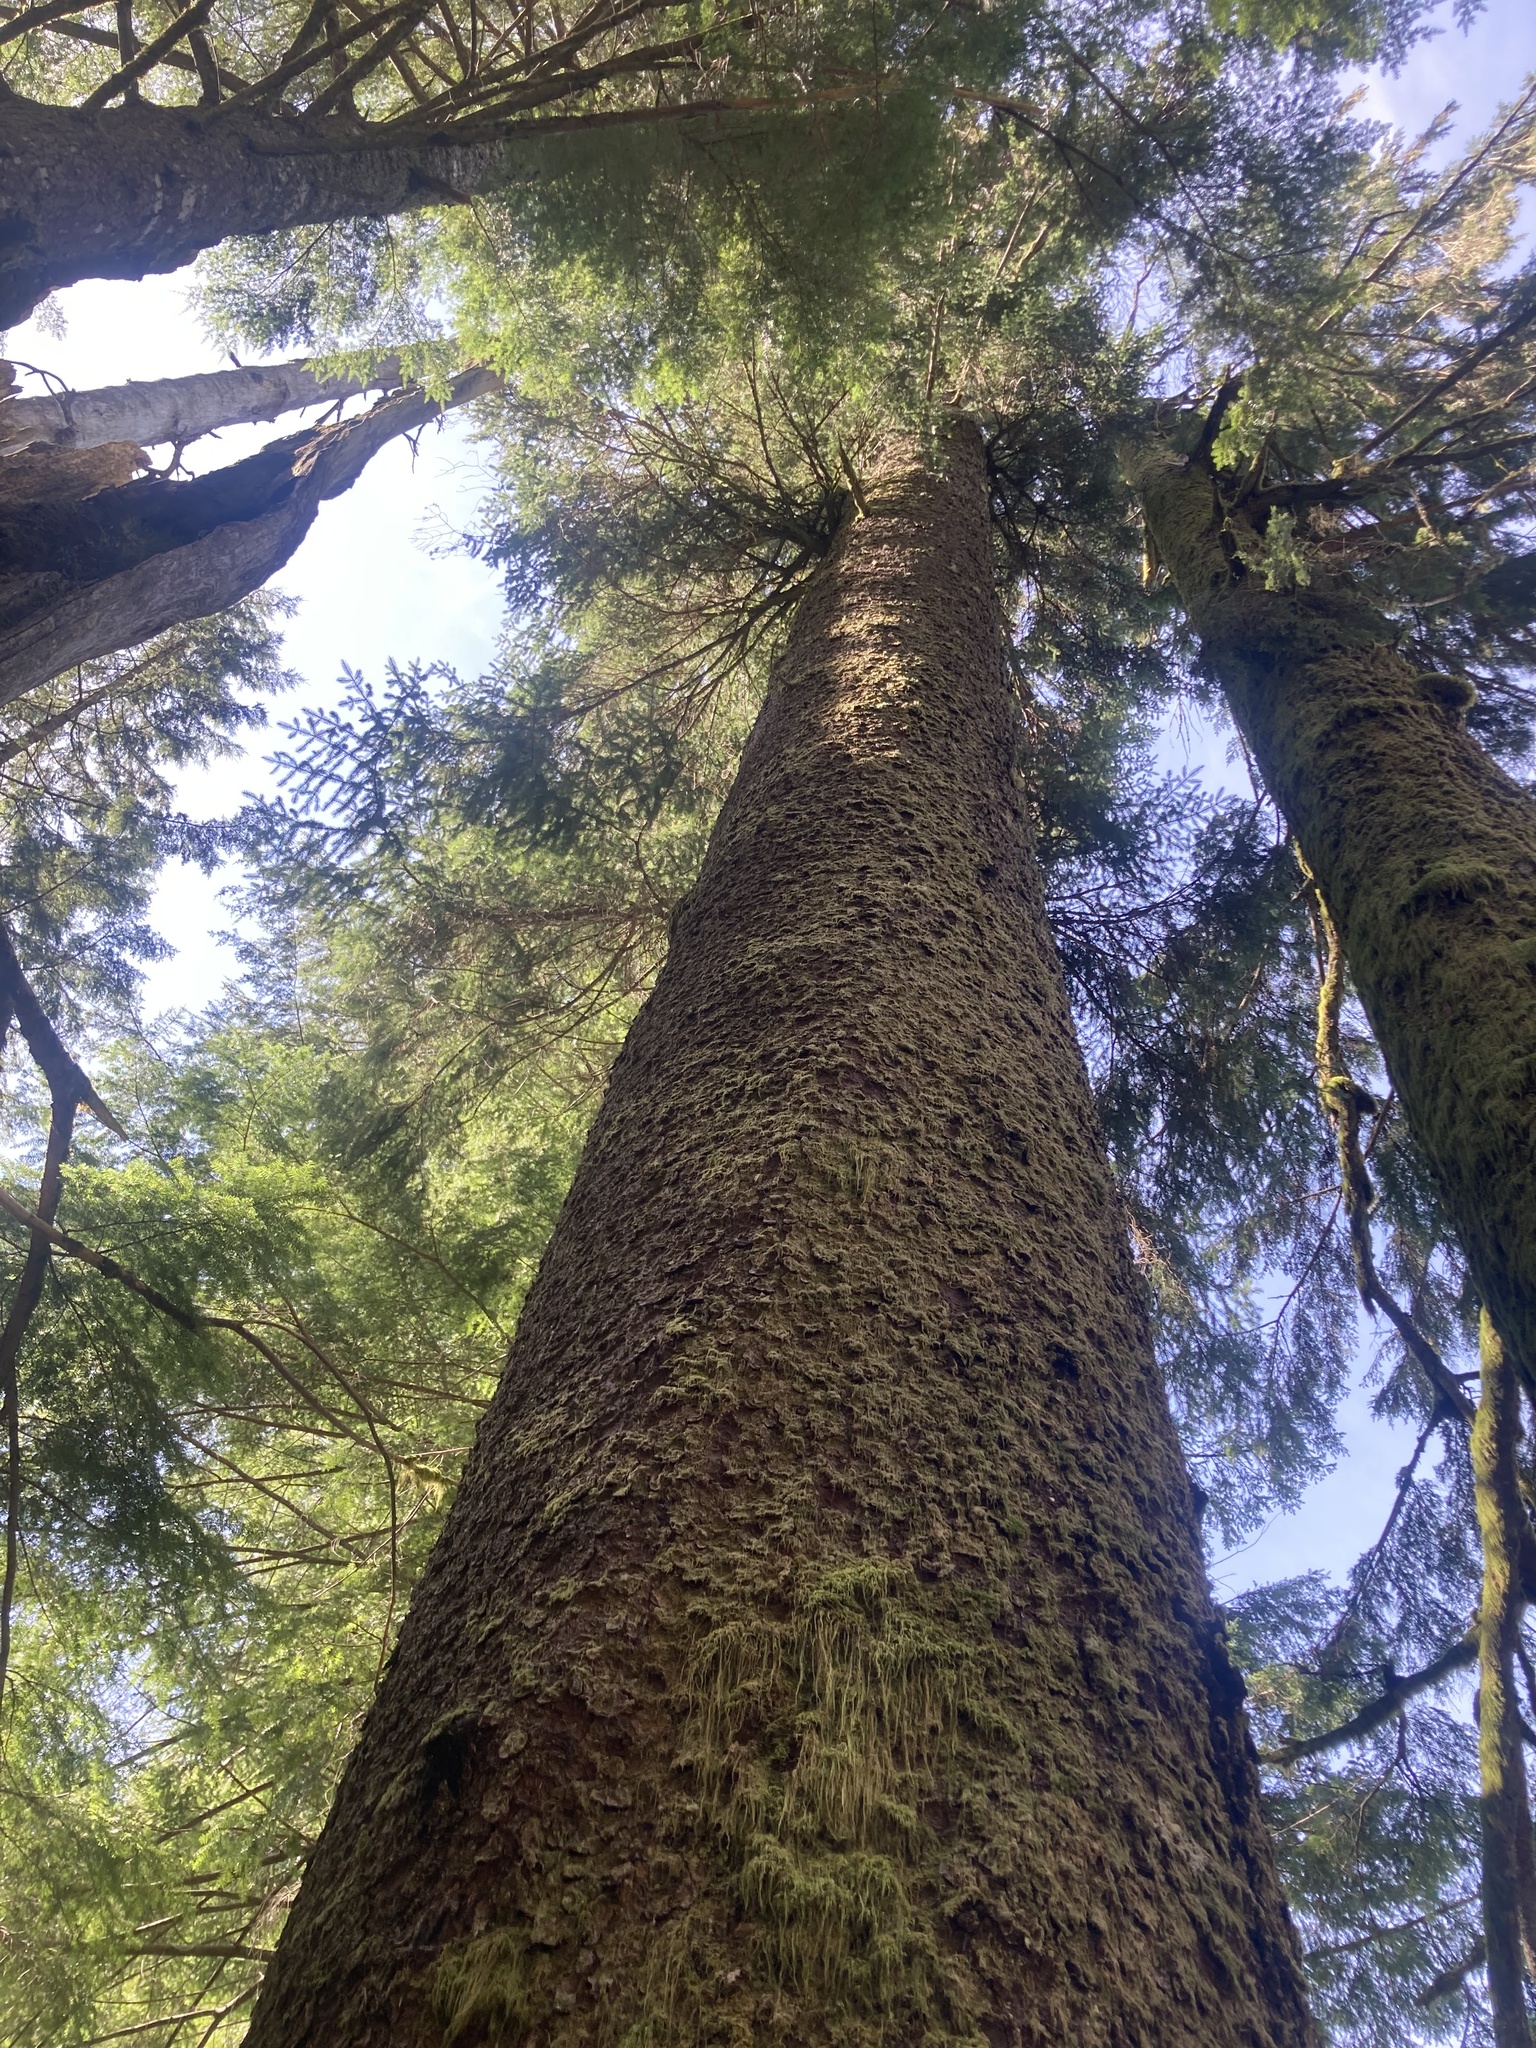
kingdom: Plantae
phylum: Tracheophyta
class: Pinopsida
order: Pinales
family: Pinaceae
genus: Picea
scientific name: Picea sitchensis
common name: Sitka spruce
